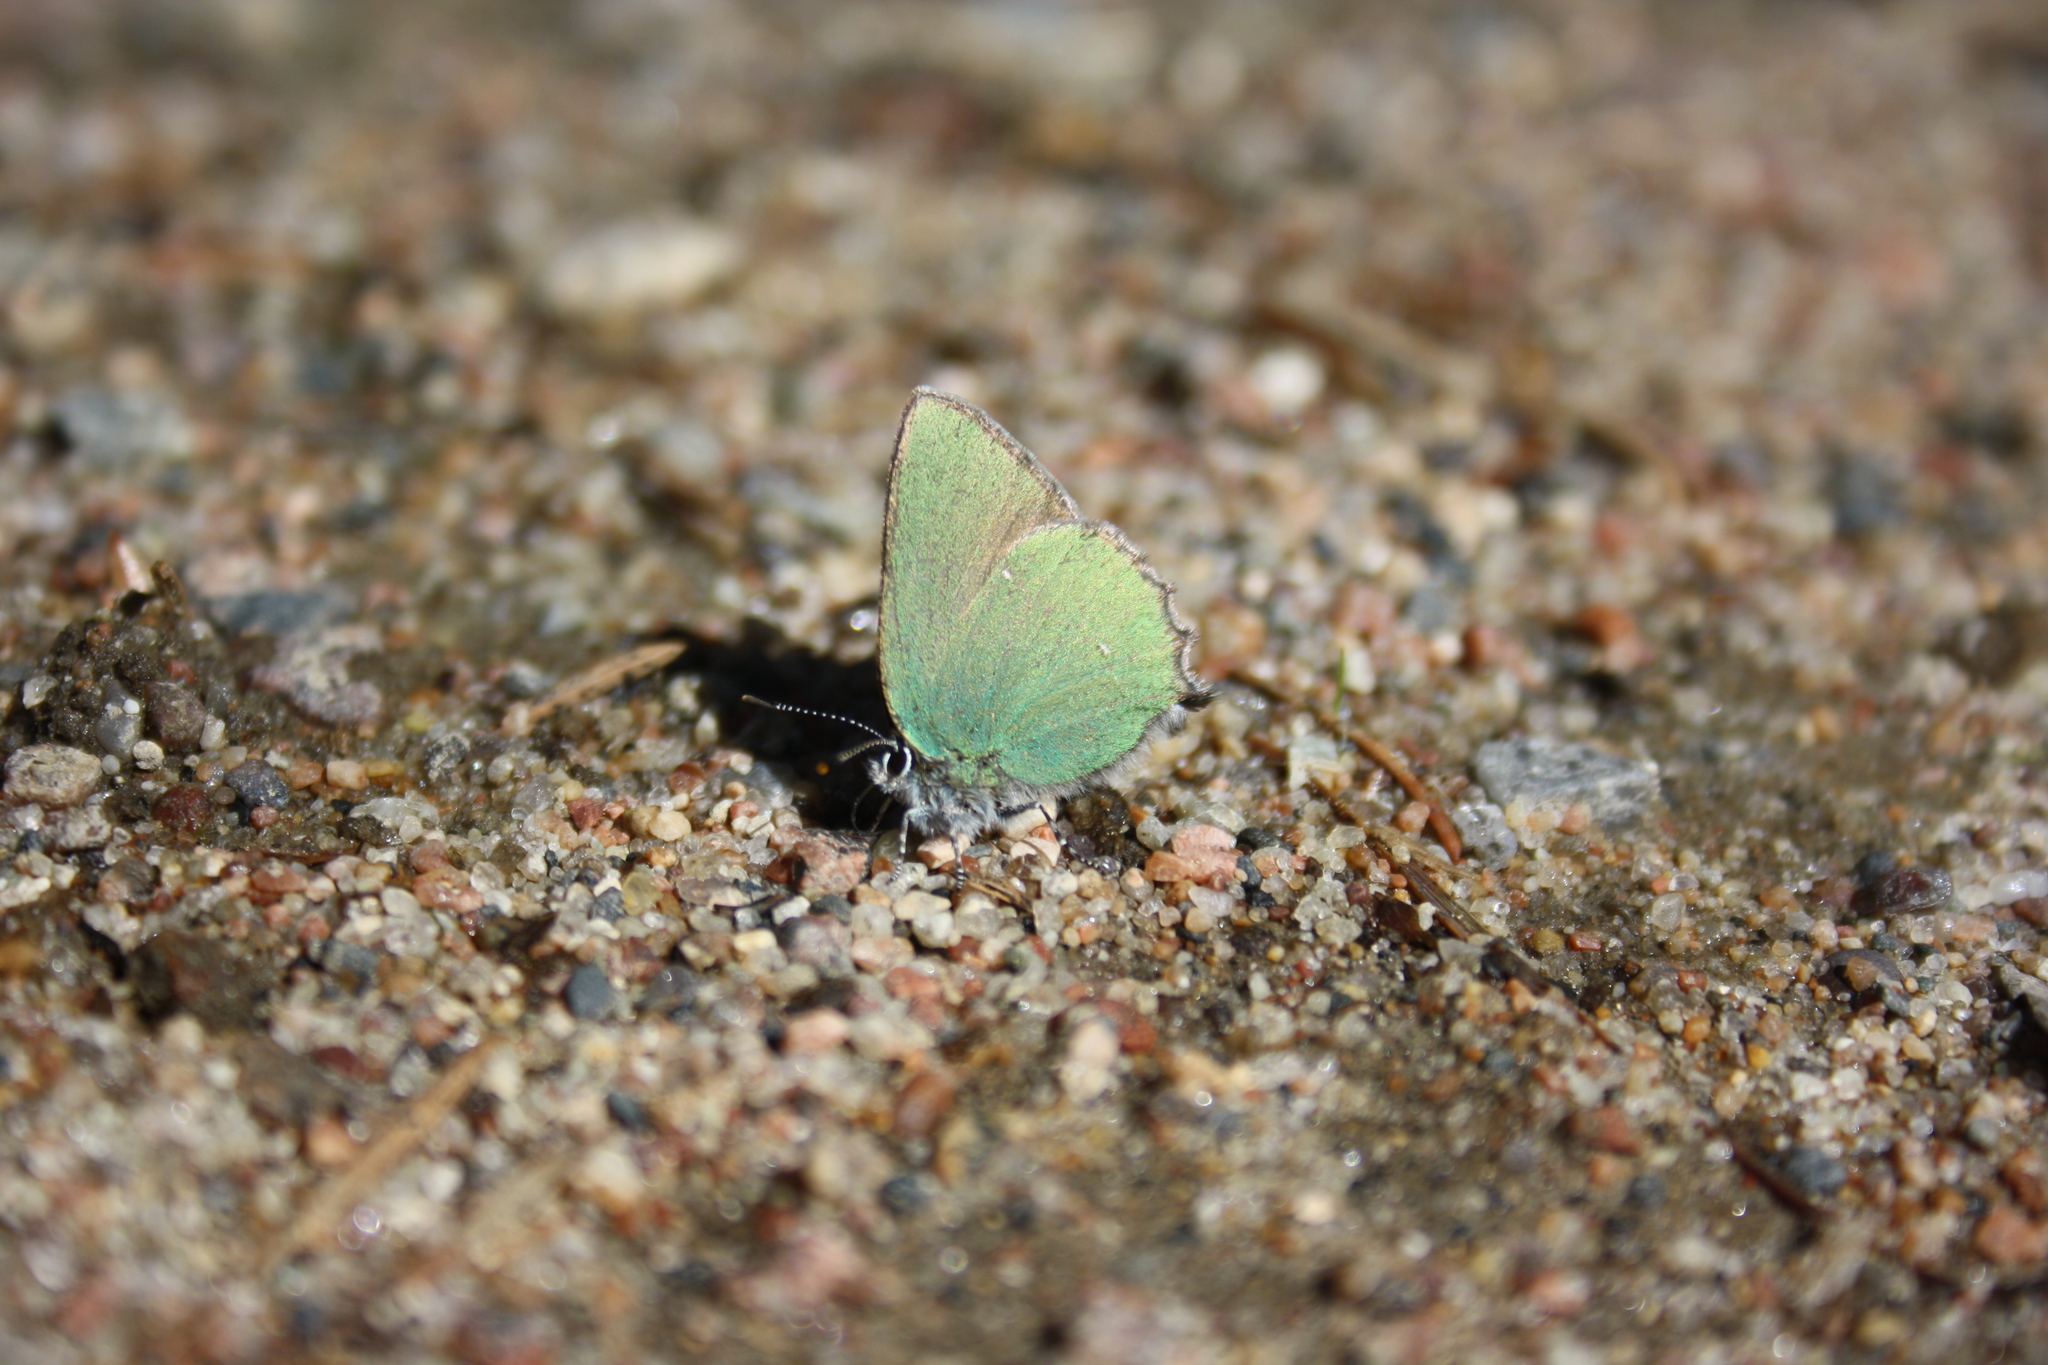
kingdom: Animalia
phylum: Arthropoda
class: Insecta
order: Lepidoptera
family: Lycaenidae
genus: Callophrys
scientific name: Callophrys rubi
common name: Green hairstreak
